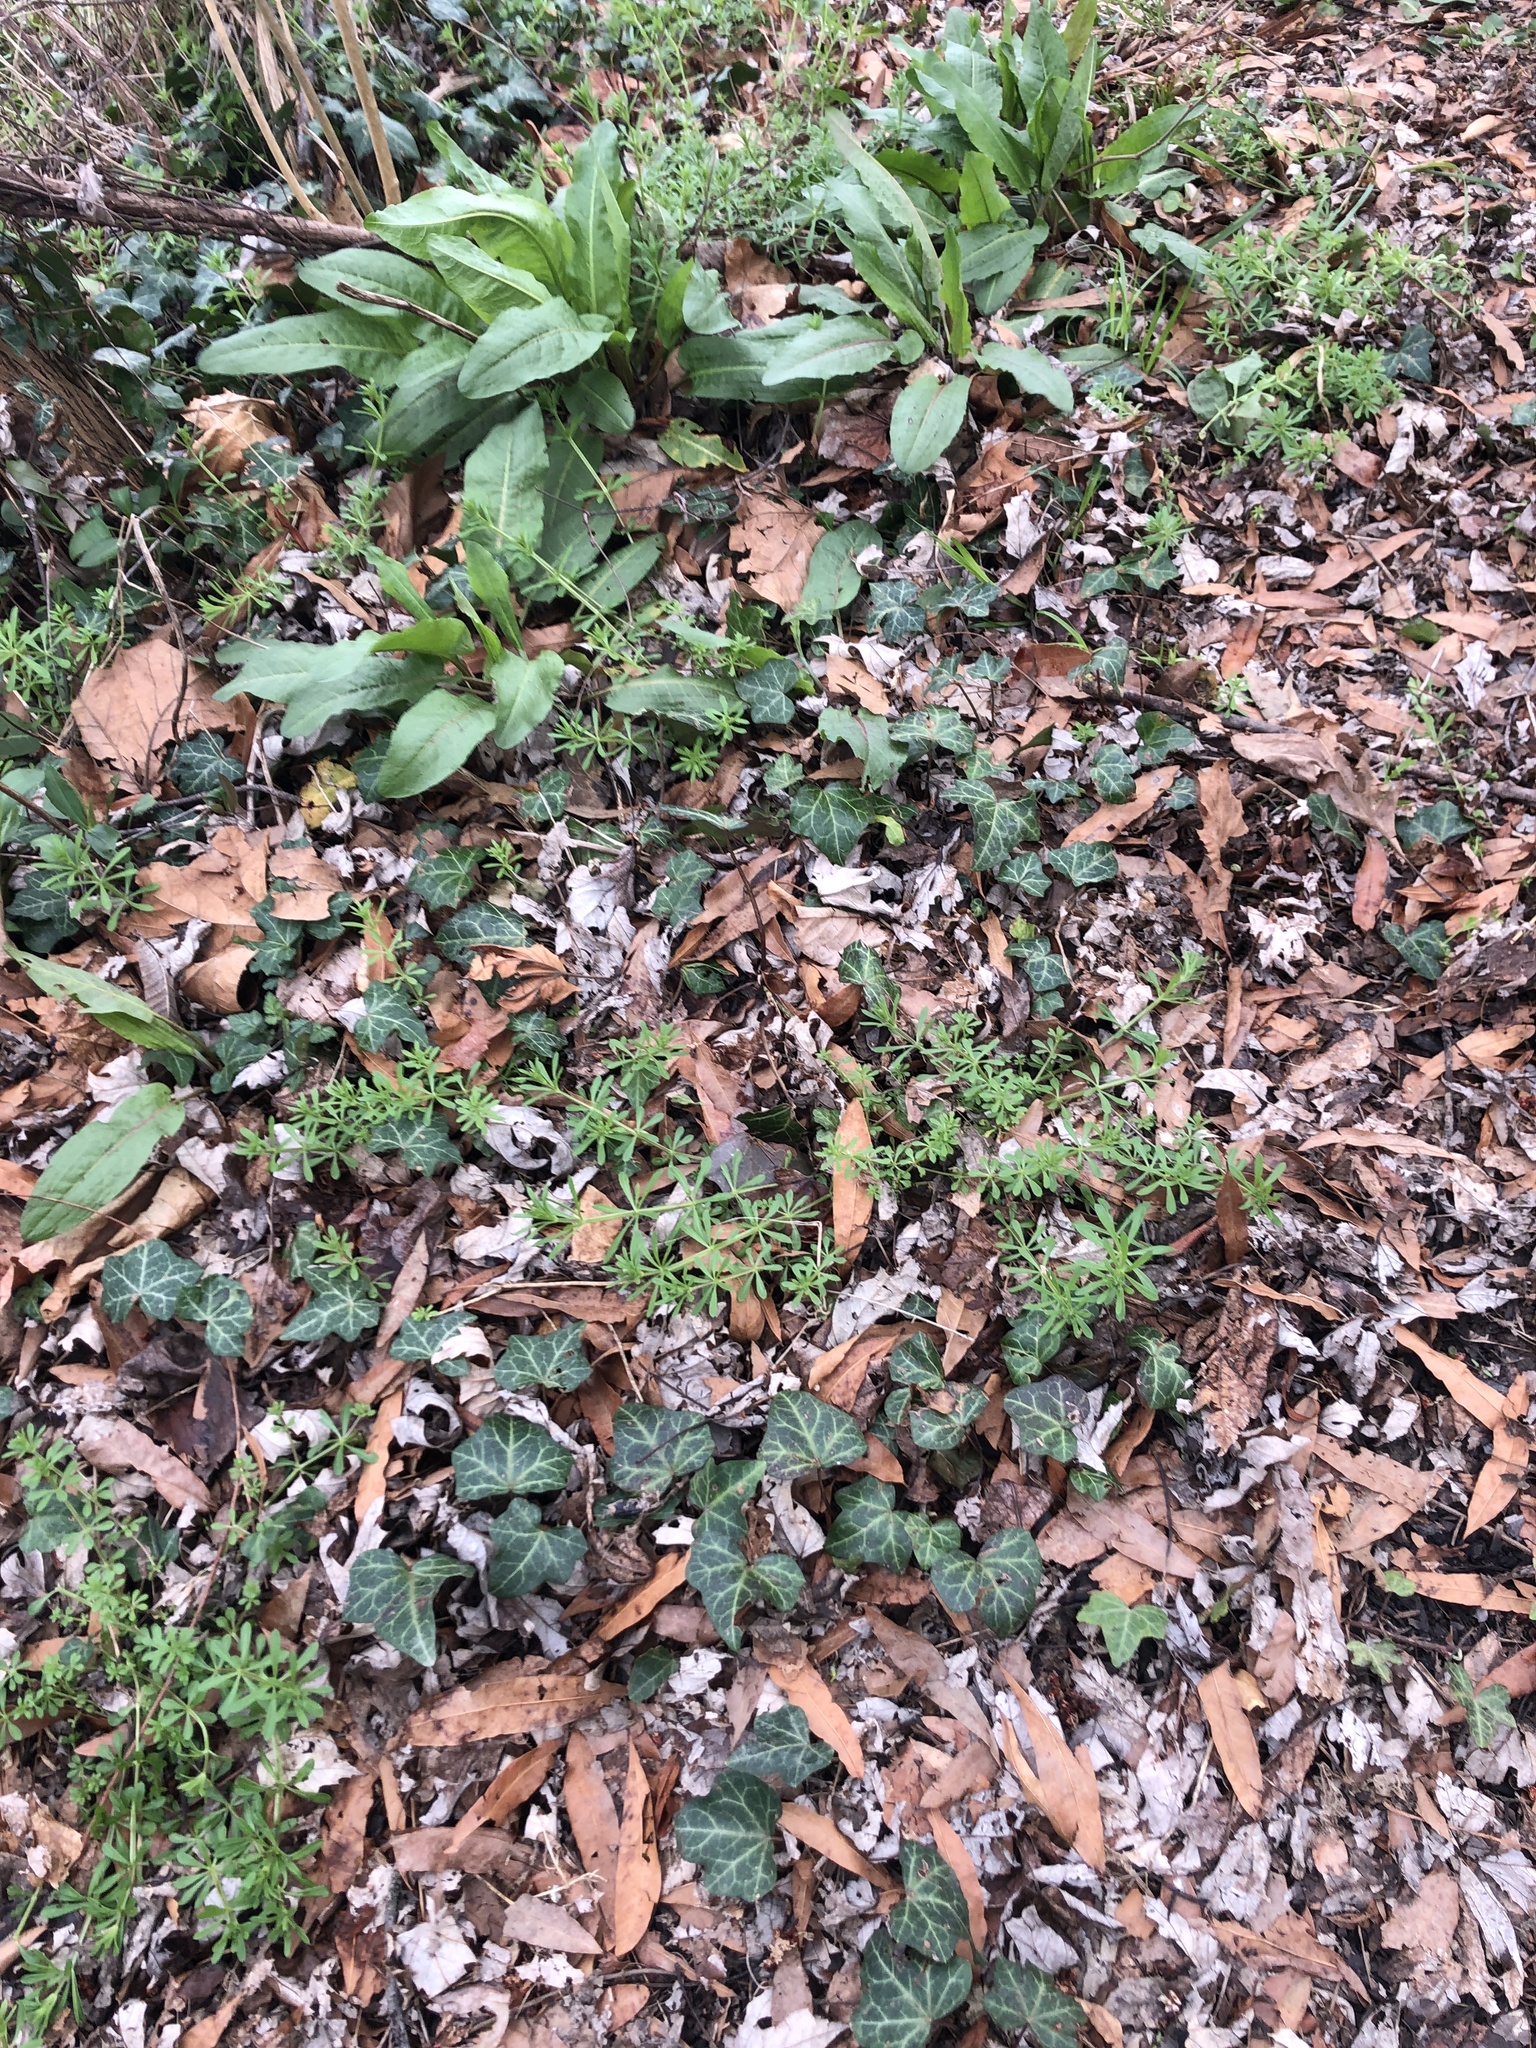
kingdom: Plantae
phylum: Tracheophyta
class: Magnoliopsida
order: Gentianales
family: Rubiaceae
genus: Galium
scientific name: Galium aparine
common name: Cleavers
